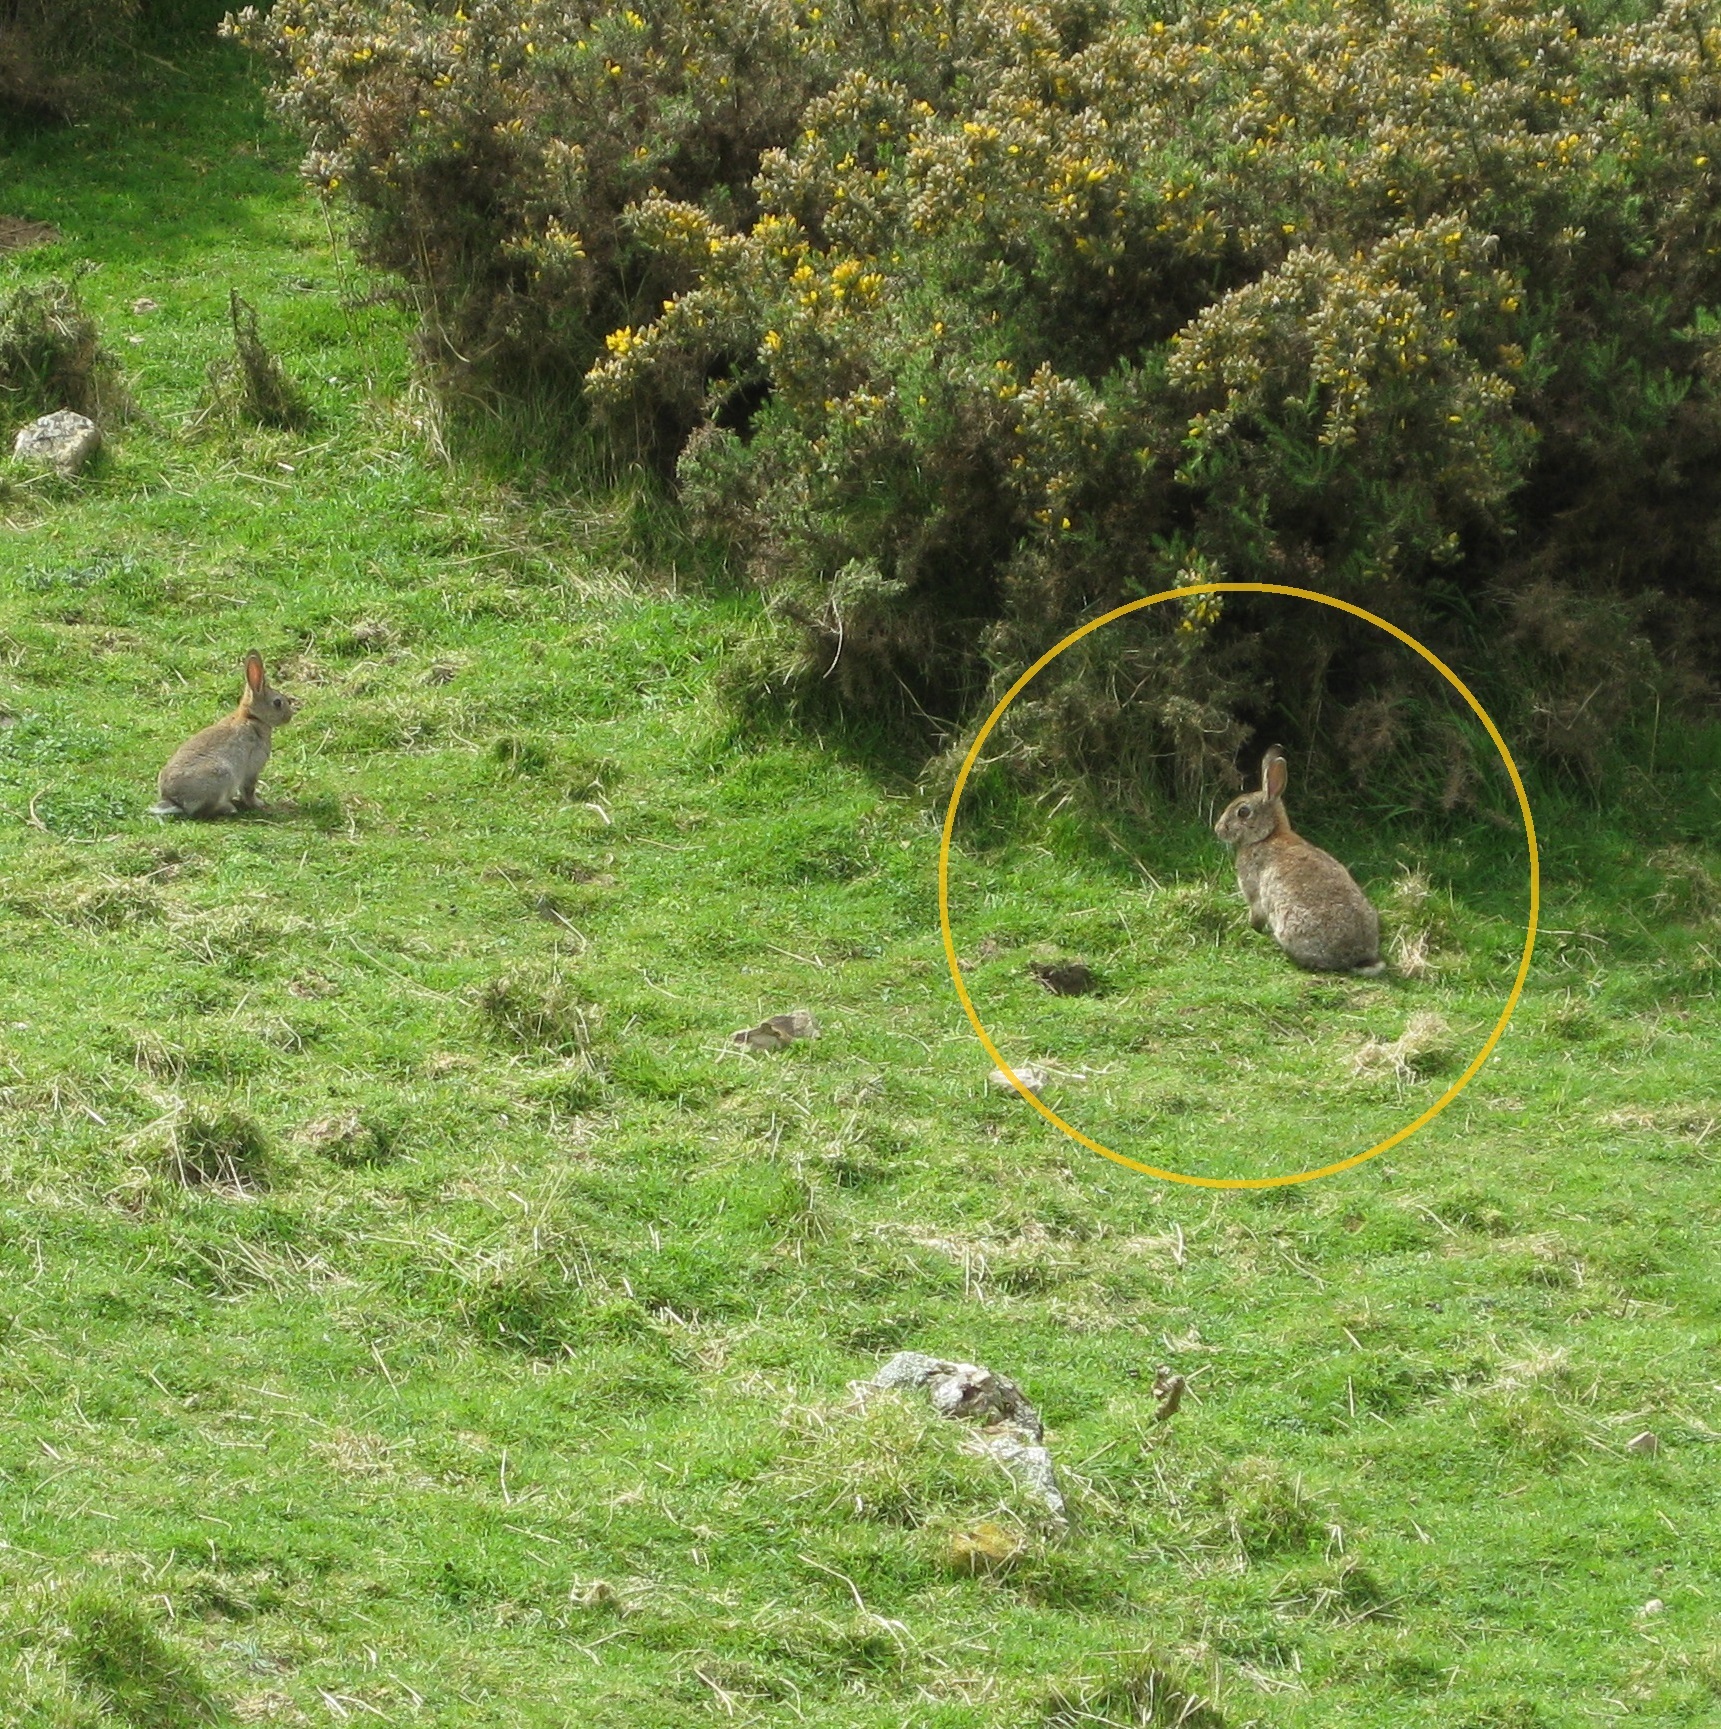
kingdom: Animalia
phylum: Chordata
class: Mammalia
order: Lagomorpha
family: Leporidae
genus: Oryctolagus
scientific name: Oryctolagus cuniculus
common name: European rabbit
